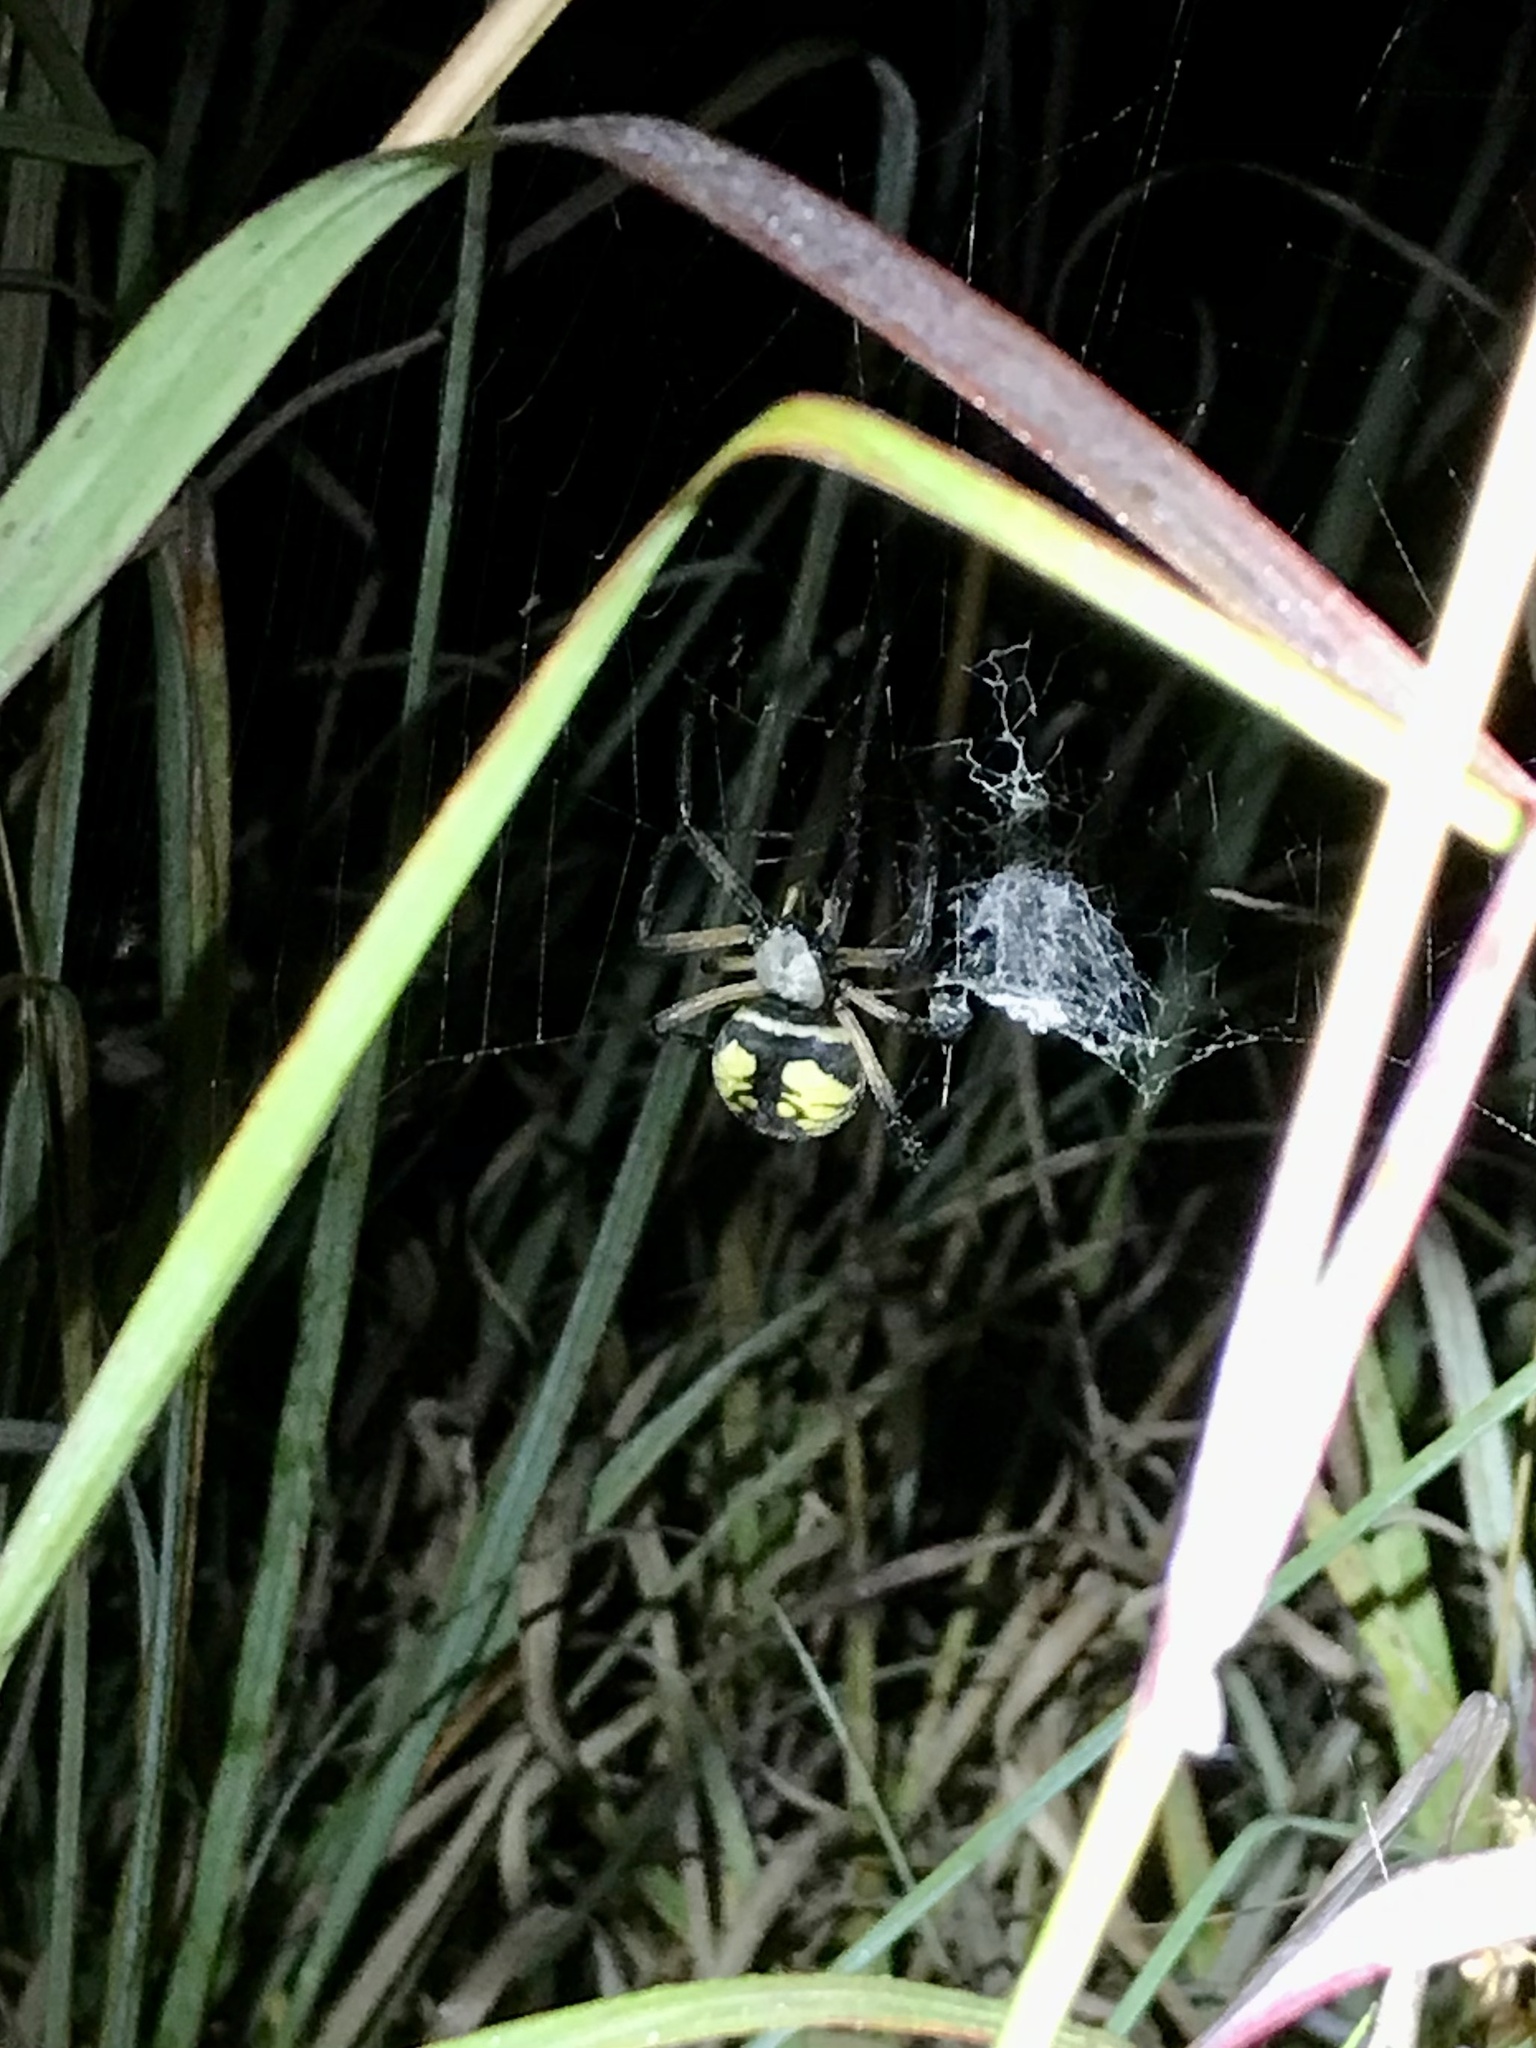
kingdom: Animalia
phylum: Arthropoda
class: Arachnida
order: Araneae
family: Araneidae
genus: Argiope
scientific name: Argiope aurantia
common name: Orb weavers
